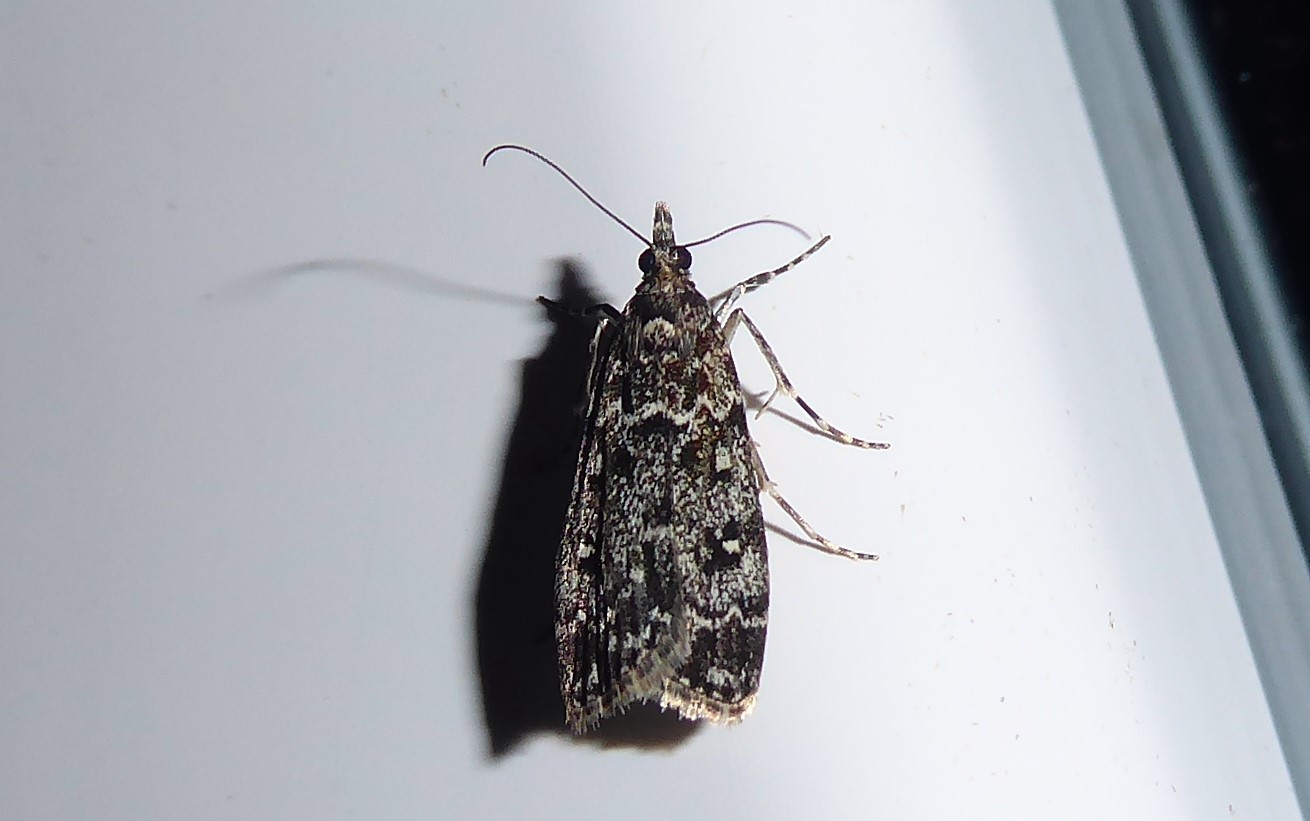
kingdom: Animalia
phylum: Arthropoda
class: Insecta
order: Lepidoptera
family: Crambidae
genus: Eudonia
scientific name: Eudonia philerga
